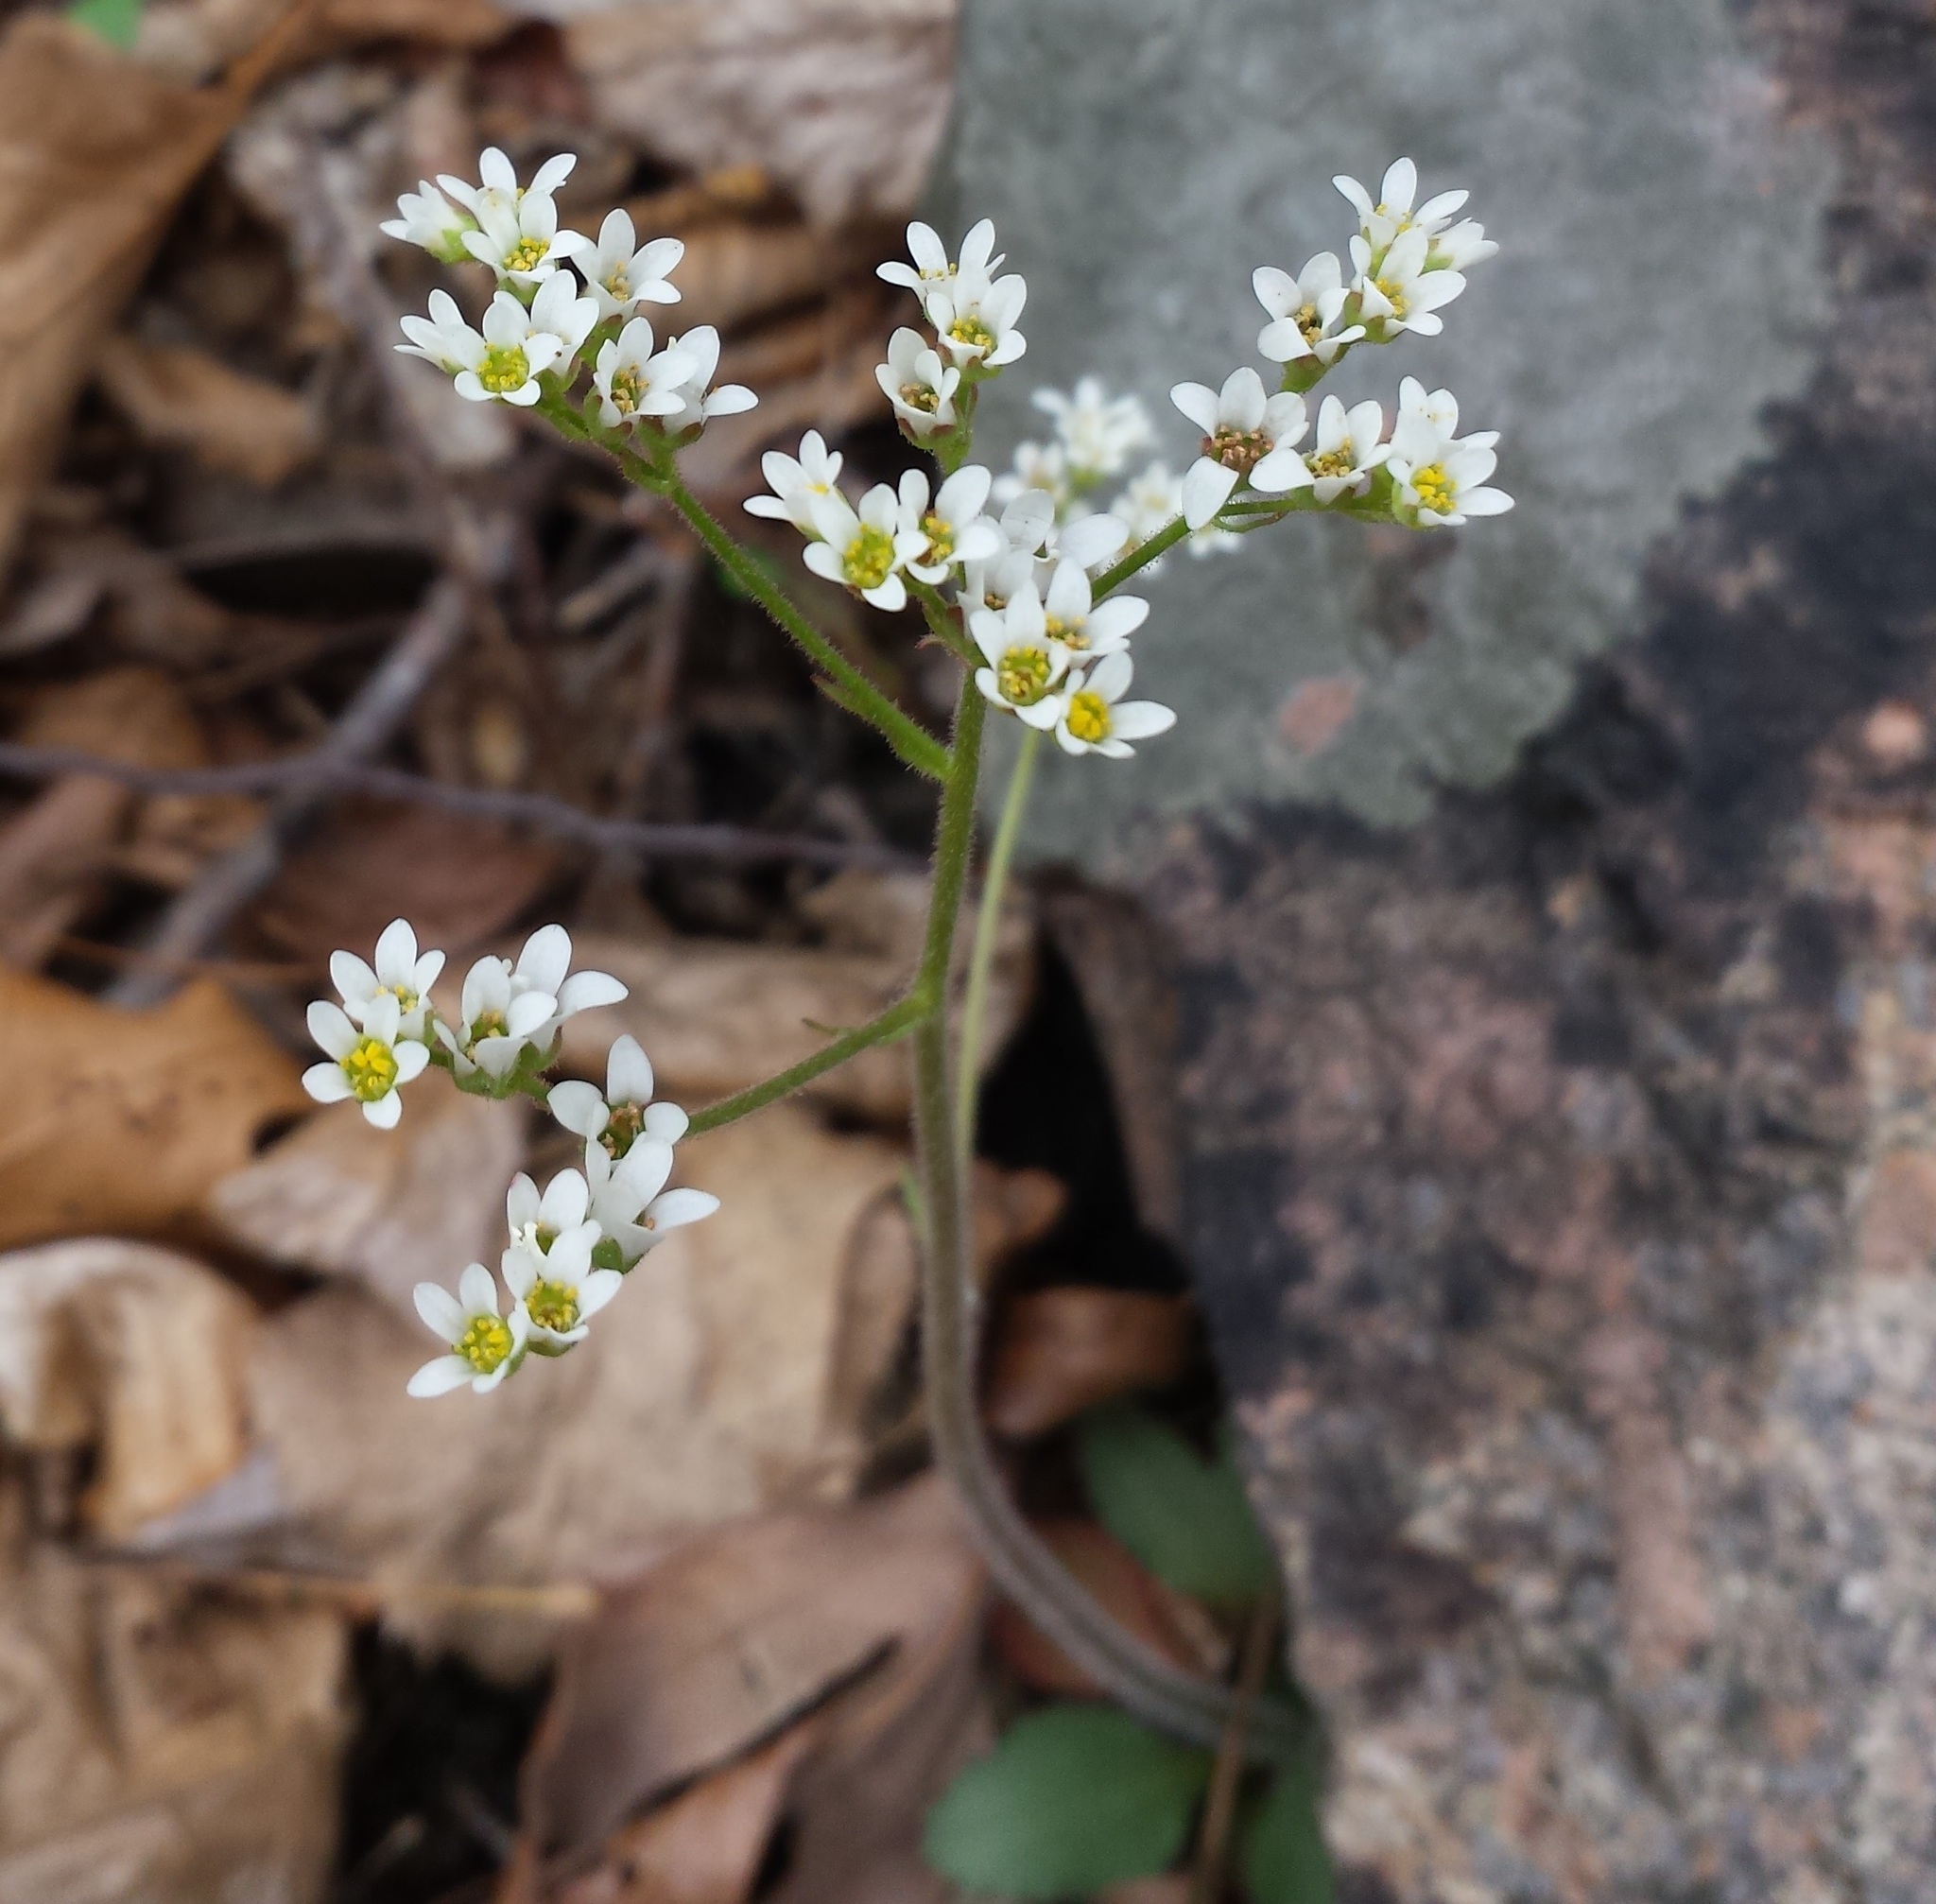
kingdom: Plantae
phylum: Tracheophyta
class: Magnoliopsida
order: Saxifragales
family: Saxifragaceae
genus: Micranthes
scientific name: Micranthes virginiensis
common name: Early saxifrage
